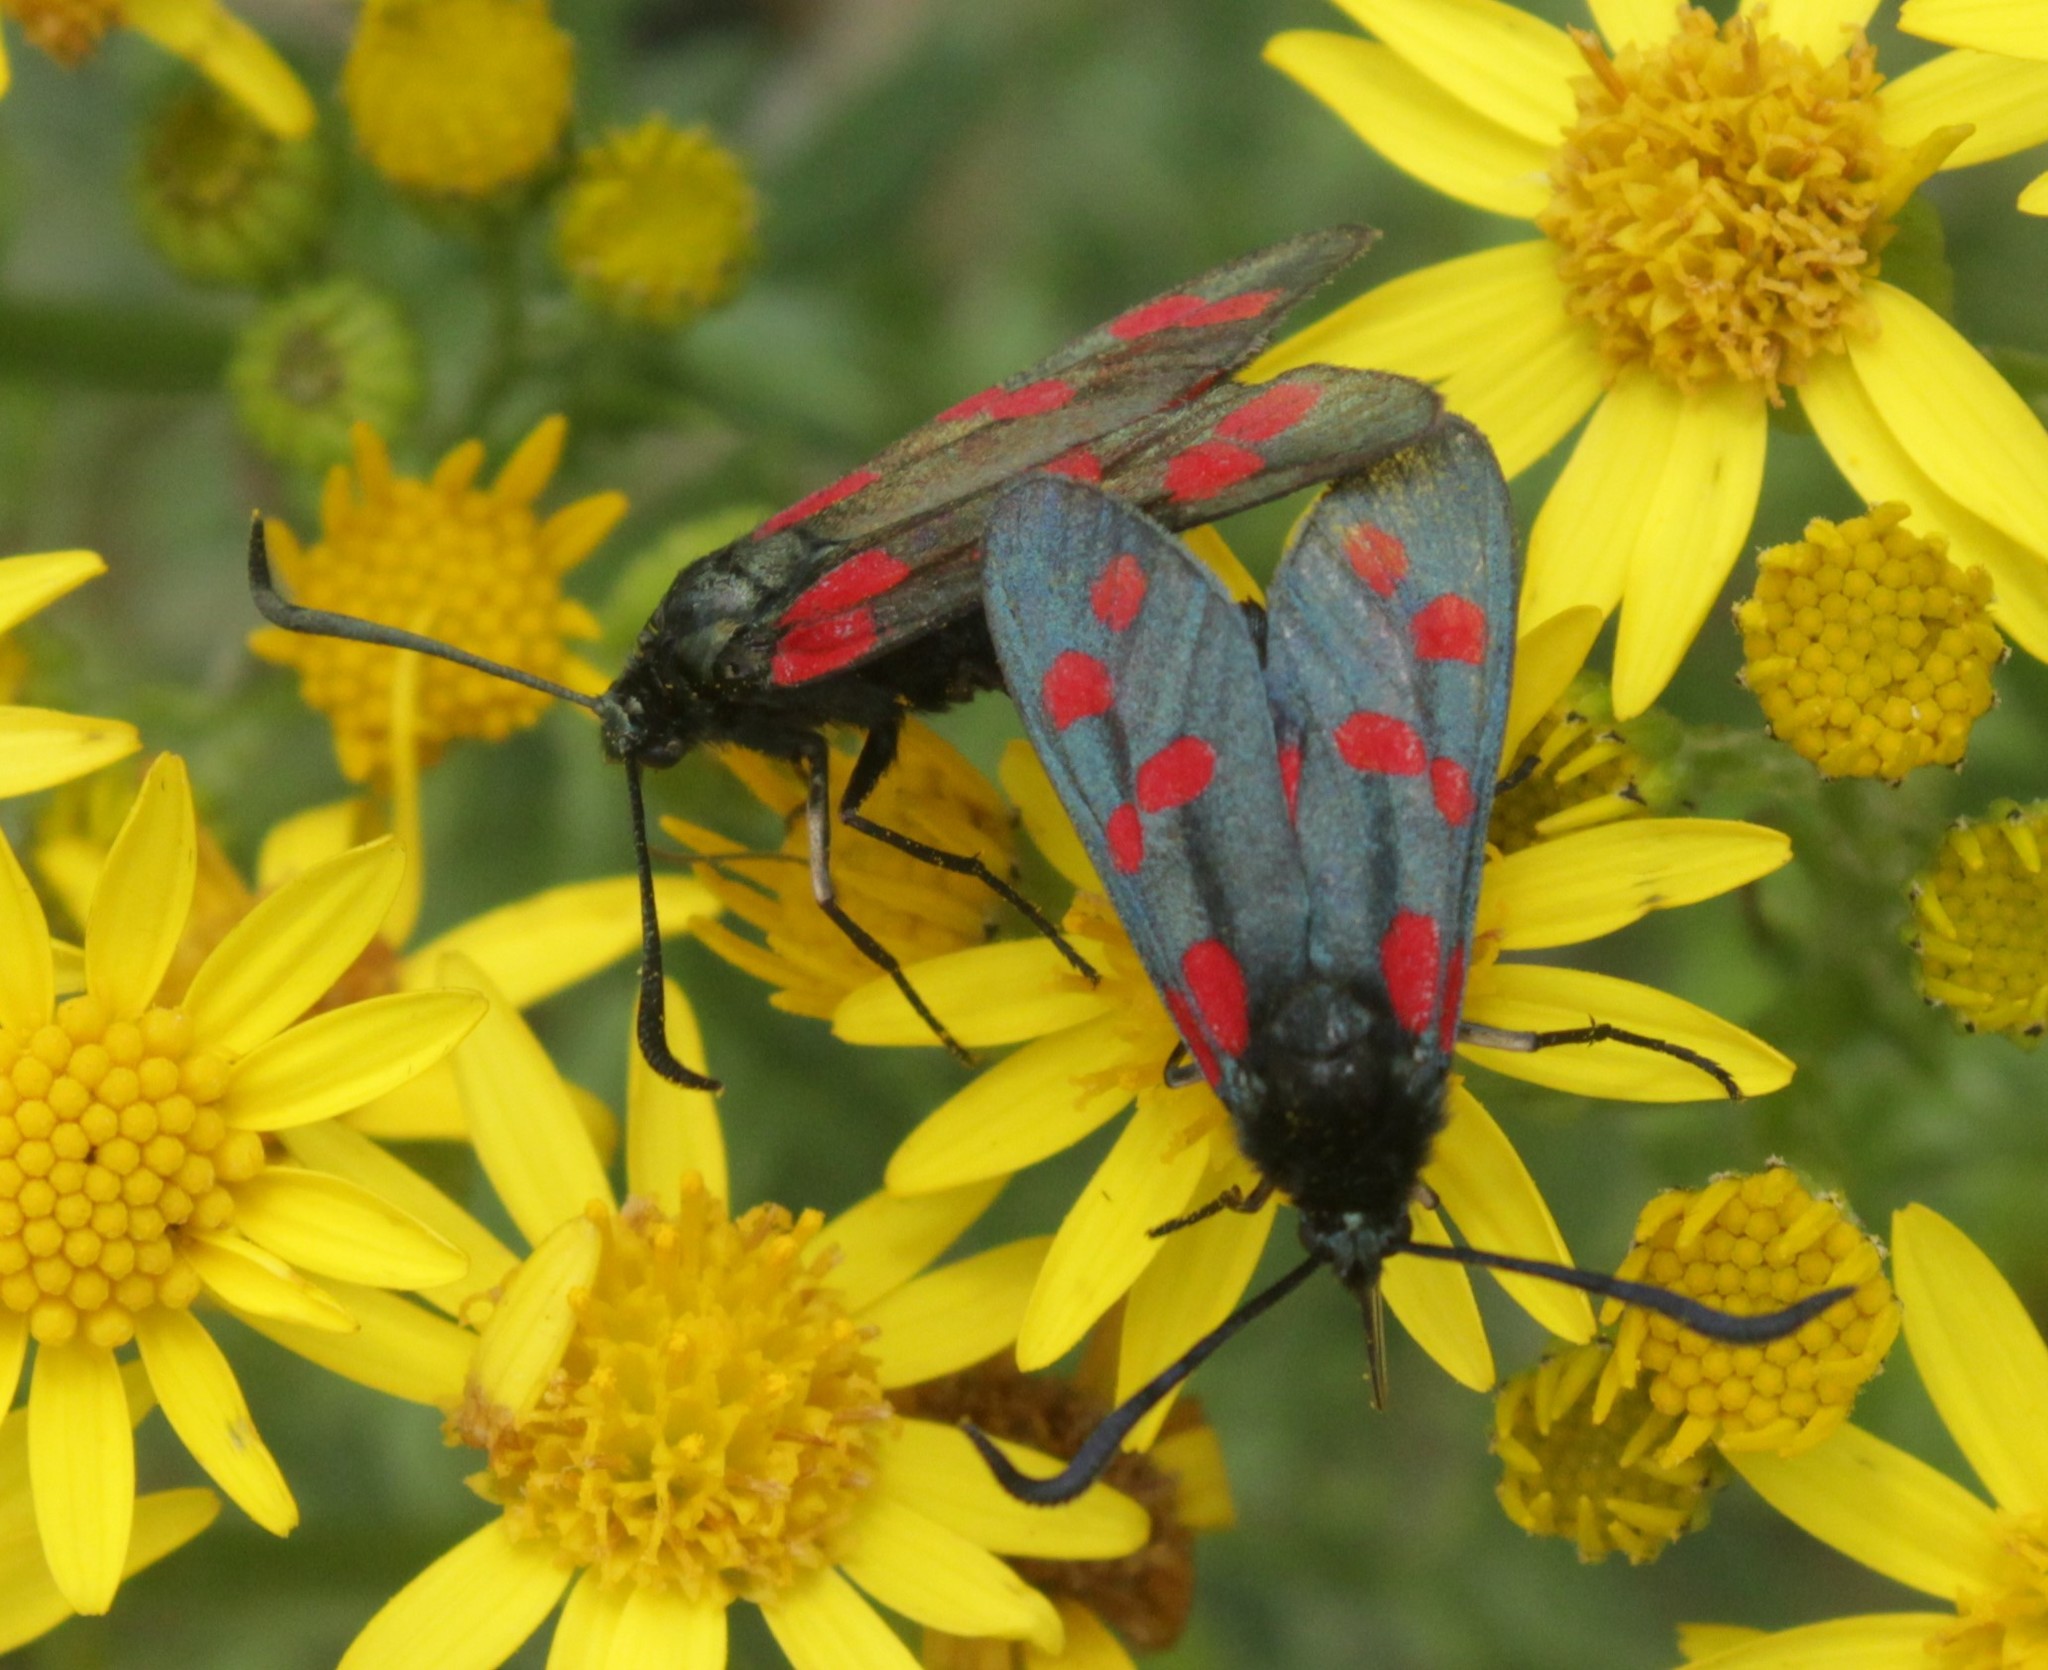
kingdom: Animalia
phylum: Arthropoda
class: Insecta
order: Lepidoptera
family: Zygaenidae
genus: Zygaena
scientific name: Zygaena filipendulae
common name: Six-spot burnet
